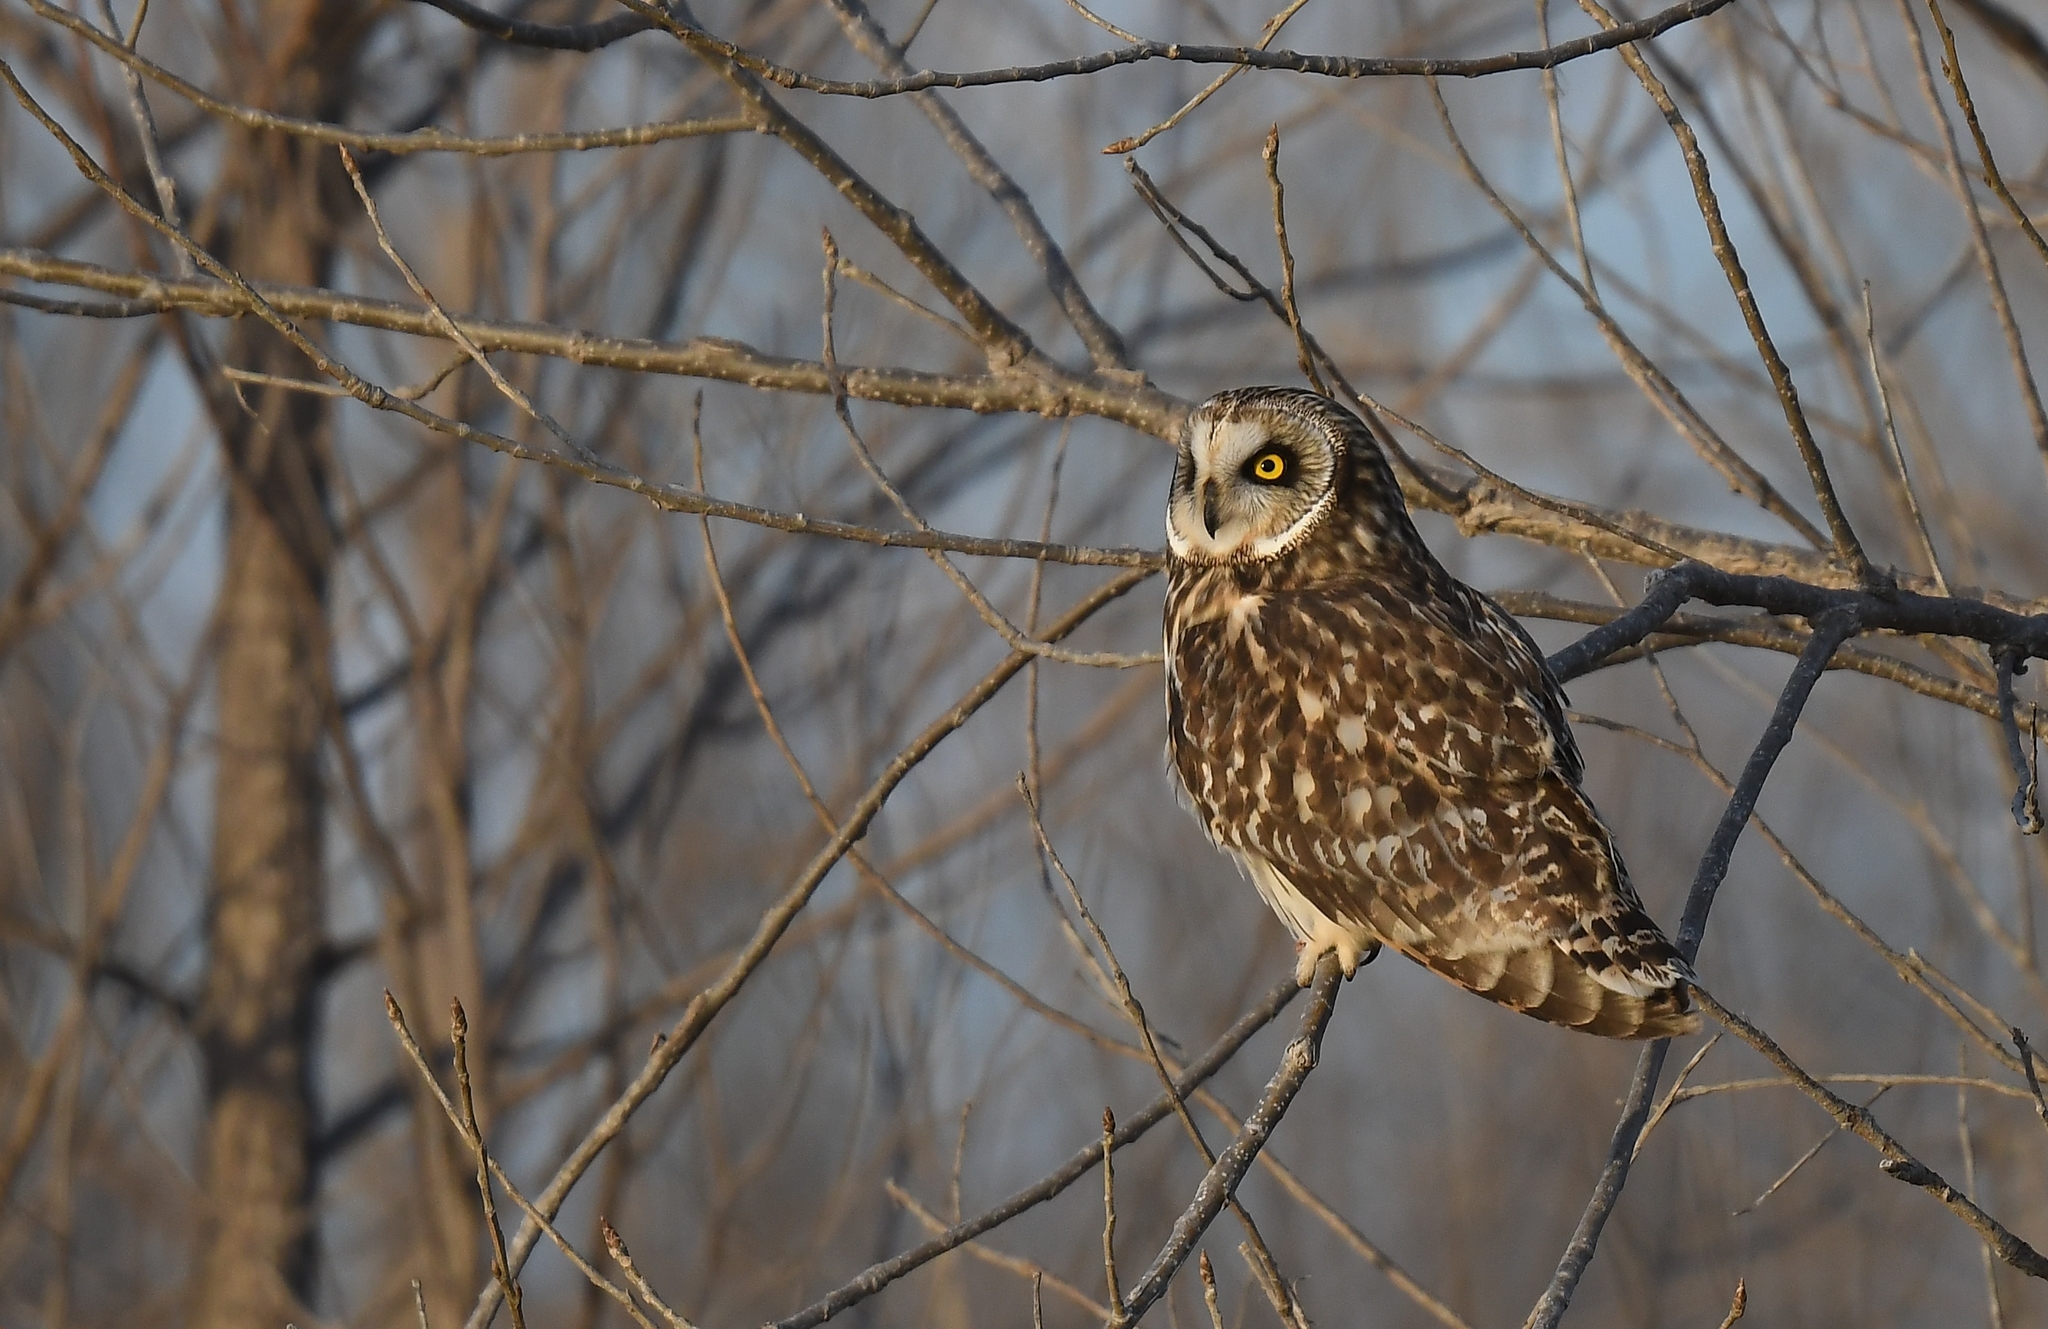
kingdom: Animalia
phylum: Chordata
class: Aves
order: Strigiformes
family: Strigidae
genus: Asio
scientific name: Asio flammeus
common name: Short-eared owl
